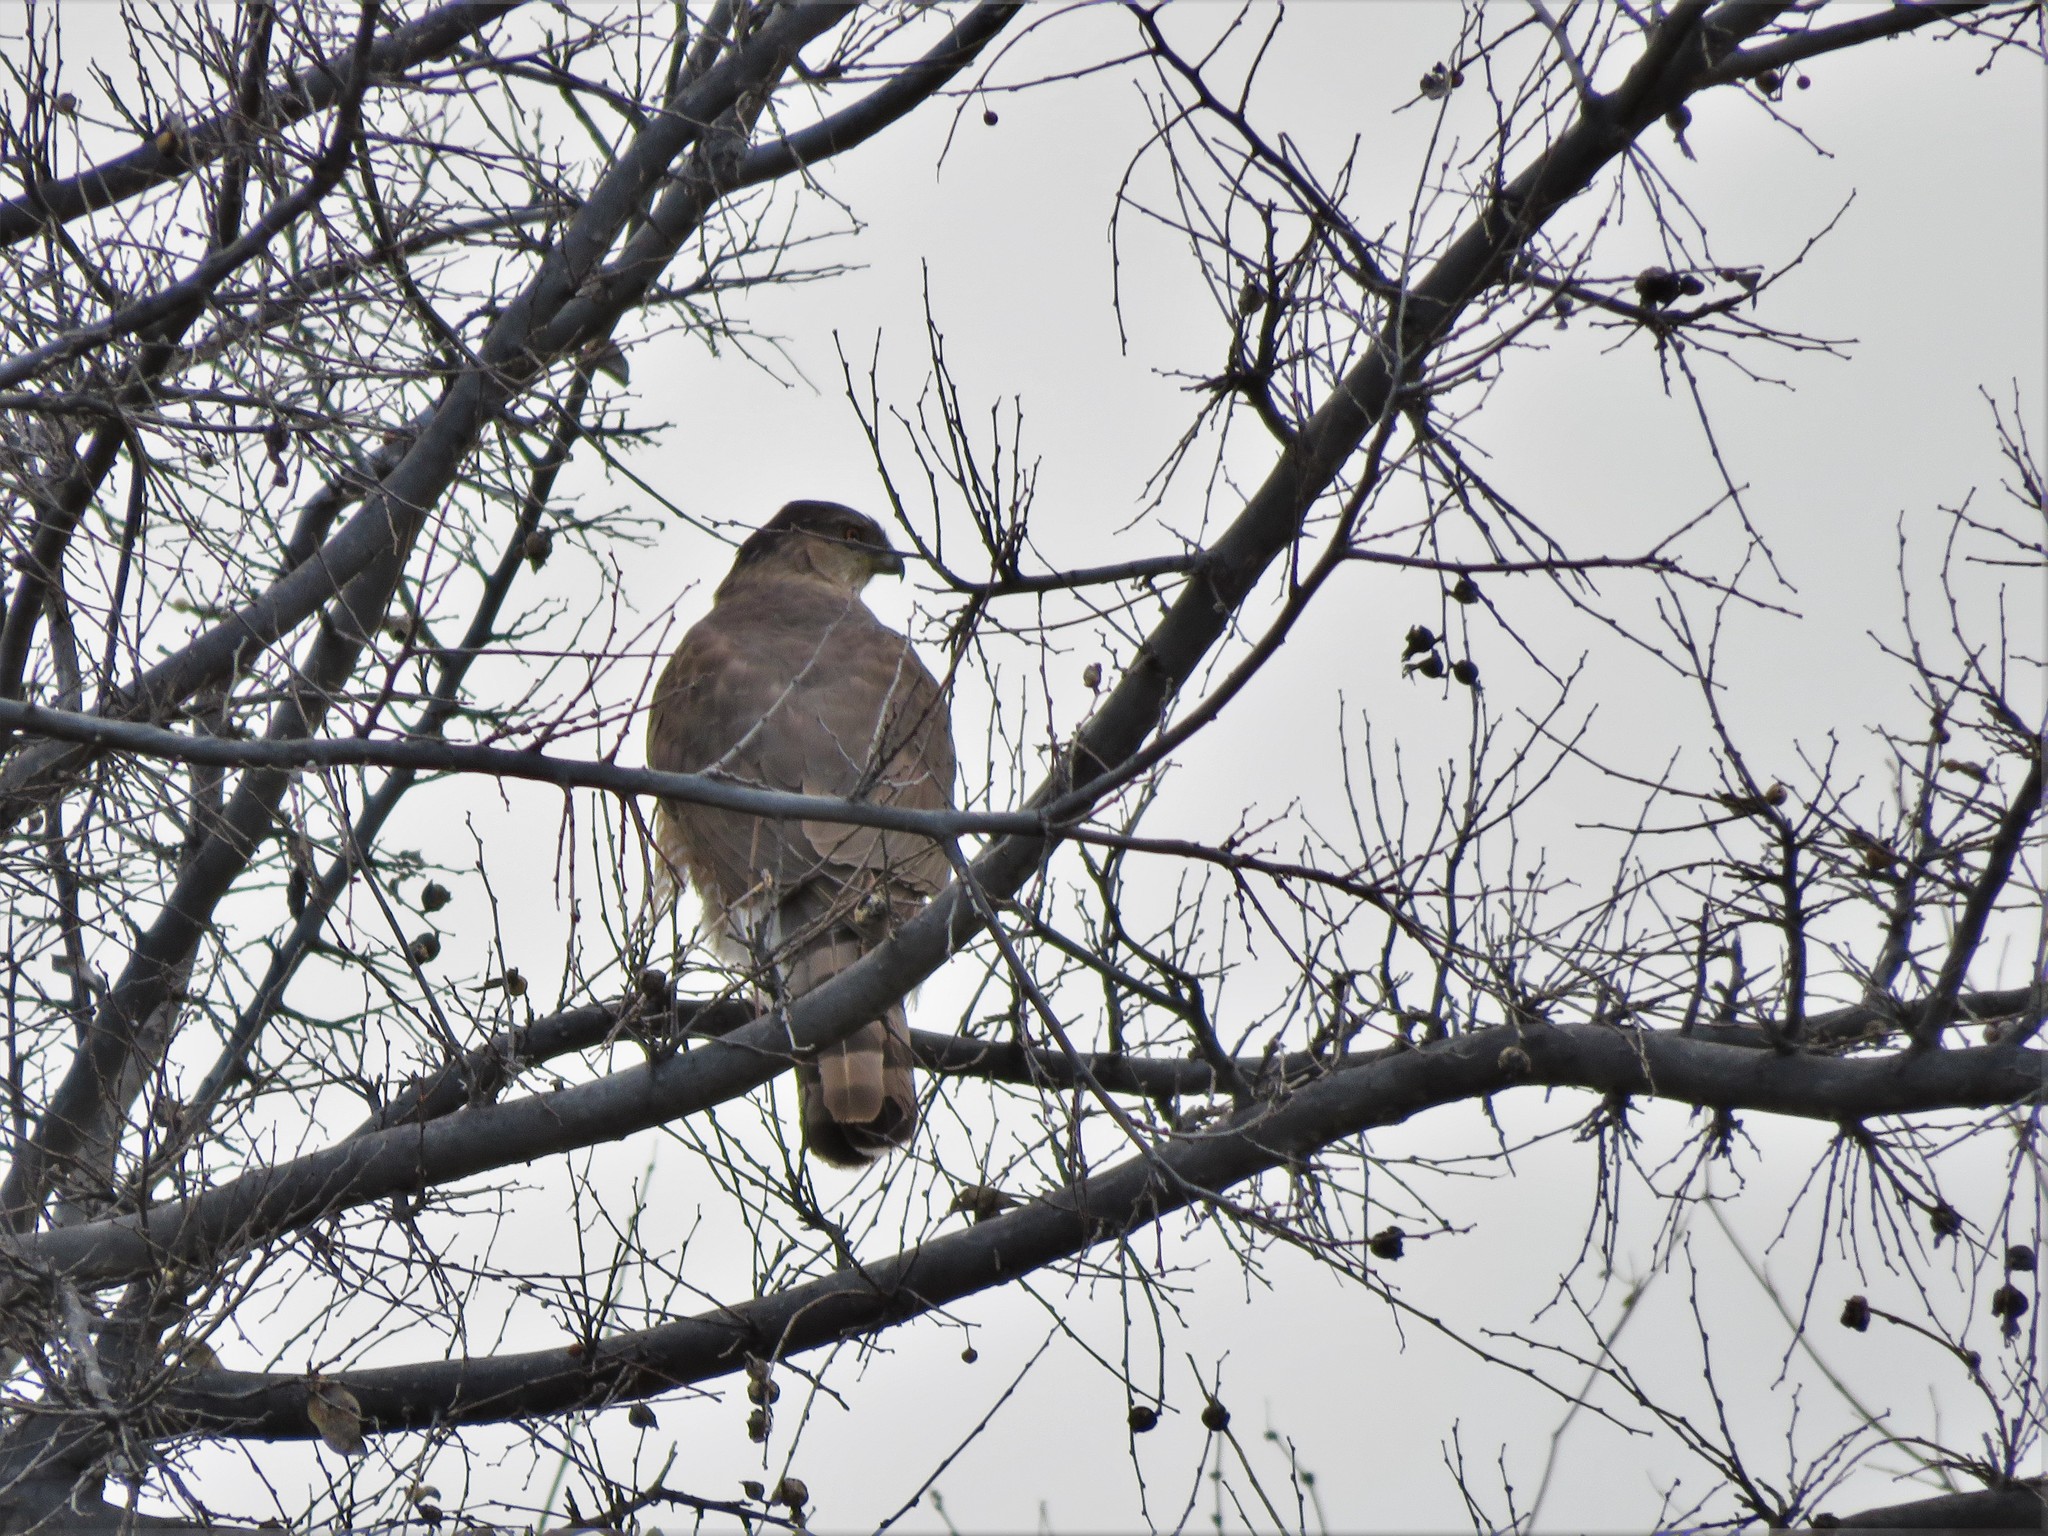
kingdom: Animalia
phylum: Chordata
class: Aves
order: Accipitriformes
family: Accipitridae
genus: Accipiter
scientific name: Accipiter cooperii
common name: Cooper's hawk
